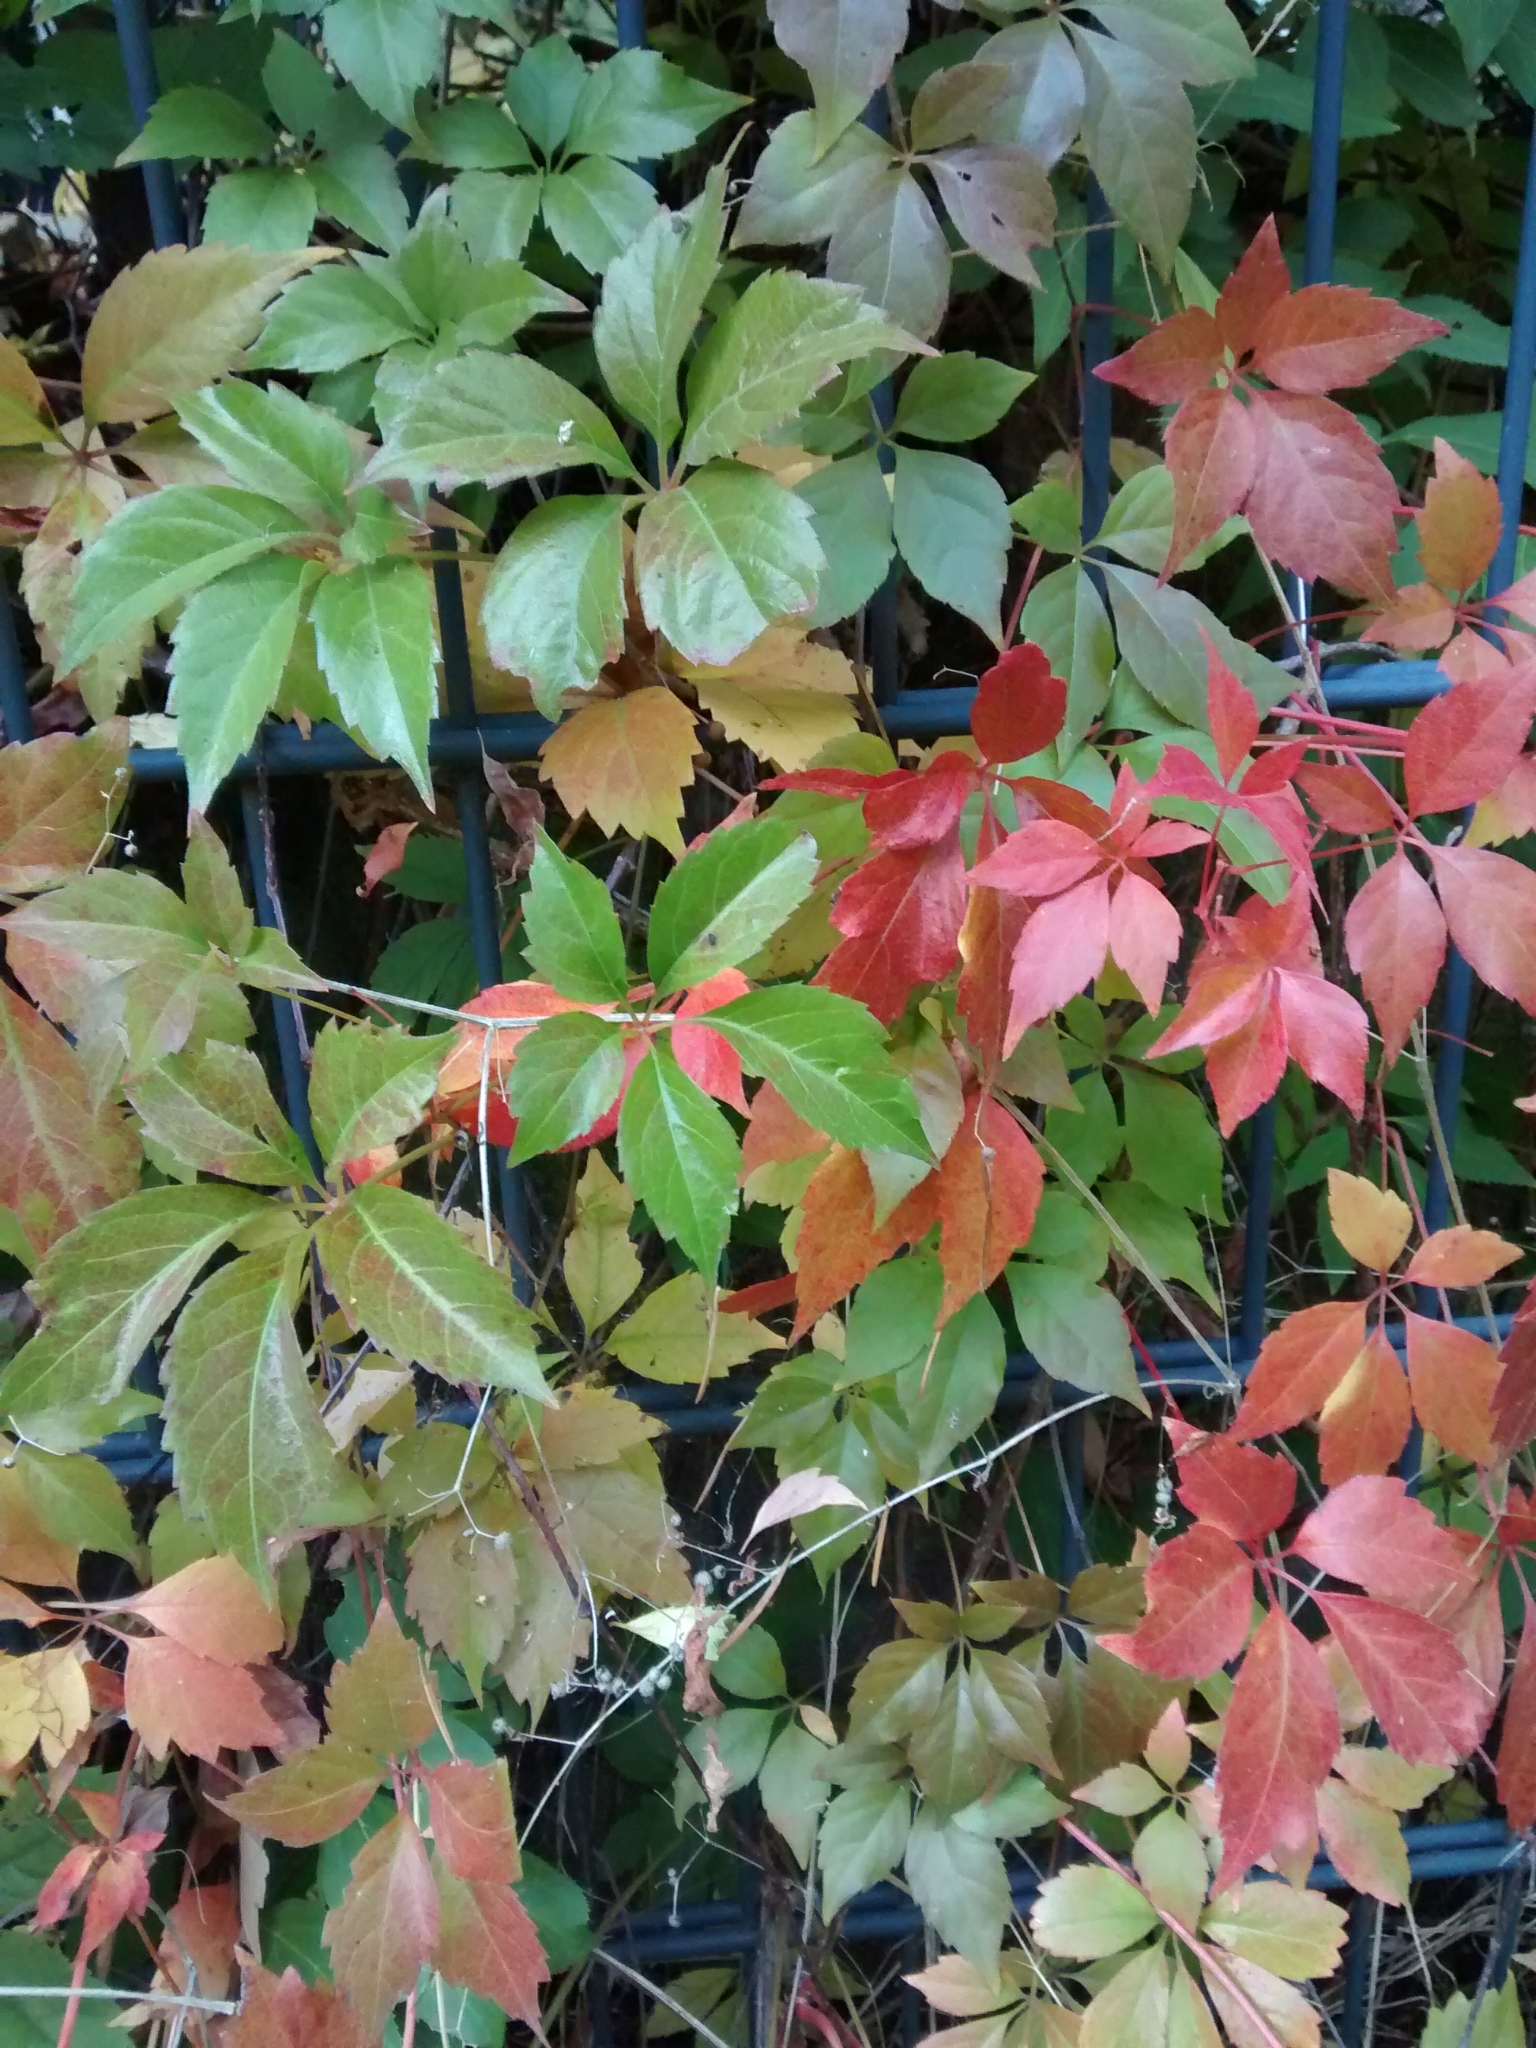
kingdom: Plantae
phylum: Tracheophyta
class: Magnoliopsida
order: Vitales
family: Vitaceae
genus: Parthenocissus
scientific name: Parthenocissus quinquefolia
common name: Virginia-creeper
